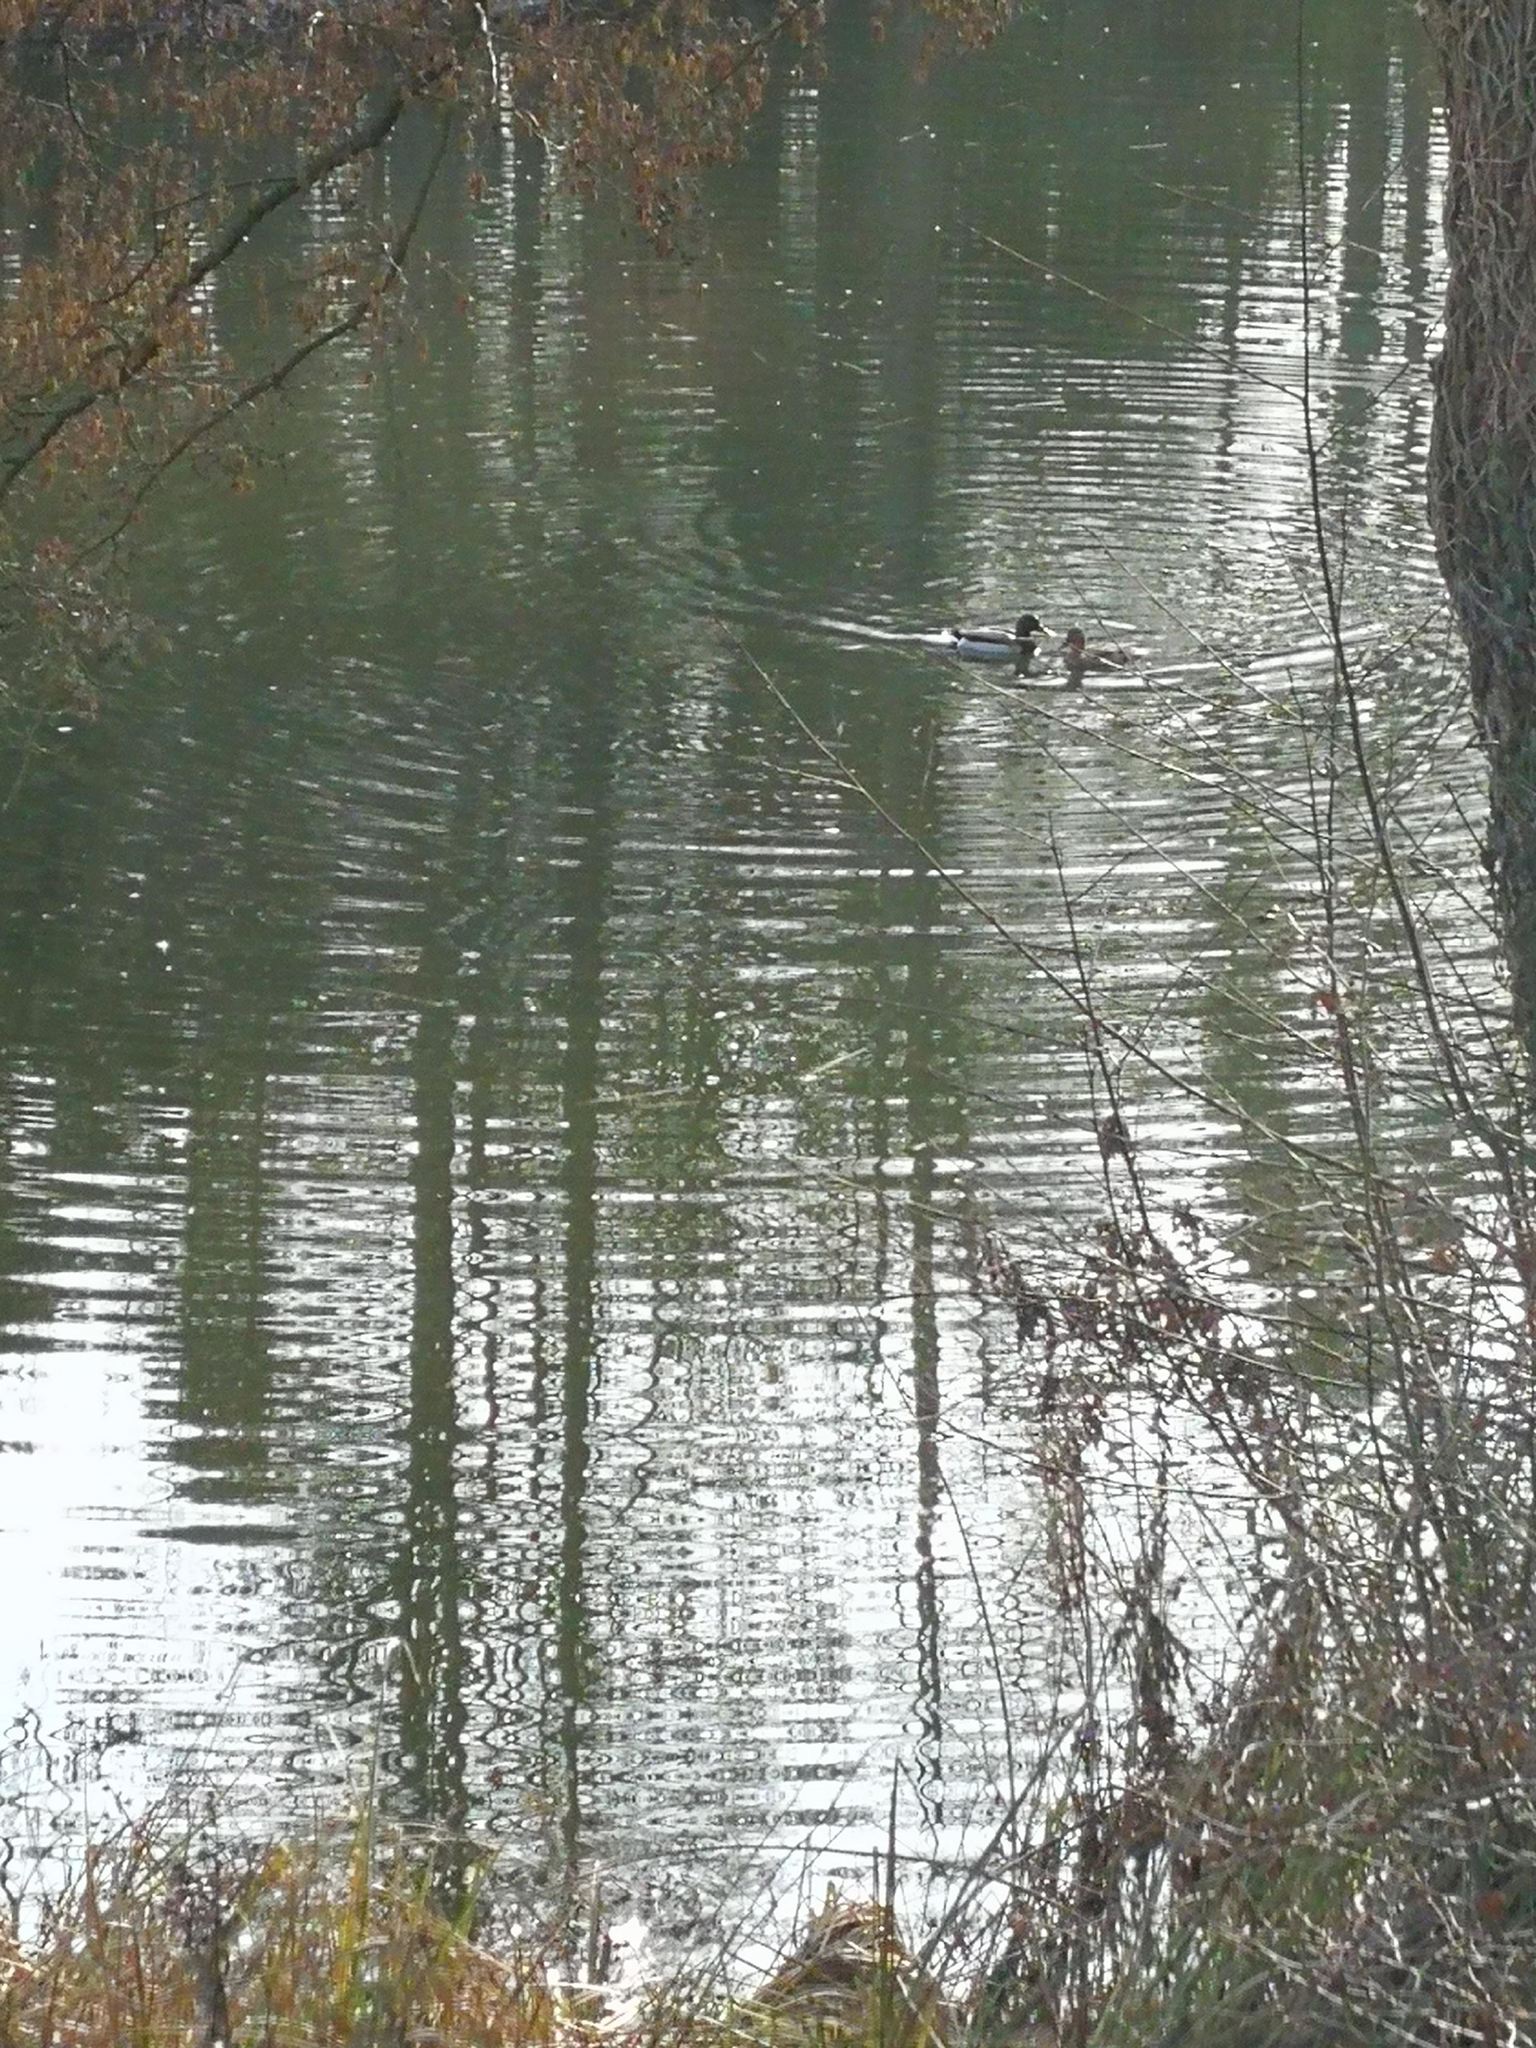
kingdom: Animalia
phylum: Chordata
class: Aves
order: Anseriformes
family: Anatidae
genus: Anas
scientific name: Anas platyrhynchos
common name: Mallard
